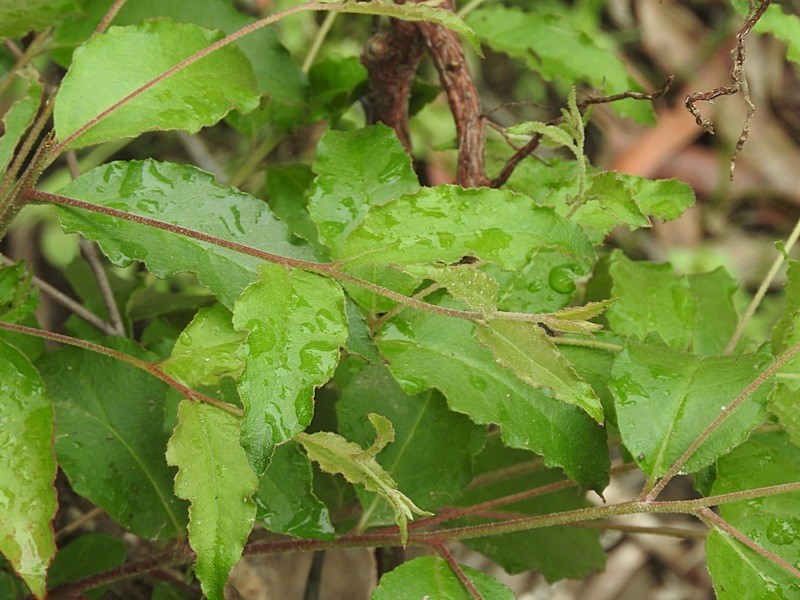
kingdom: Plantae
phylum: Tracheophyta
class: Magnoliopsida
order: Myrtales
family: Myrtaceae
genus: Eucalyptus
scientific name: Eucalyptus globoidea
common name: White-stringybark
